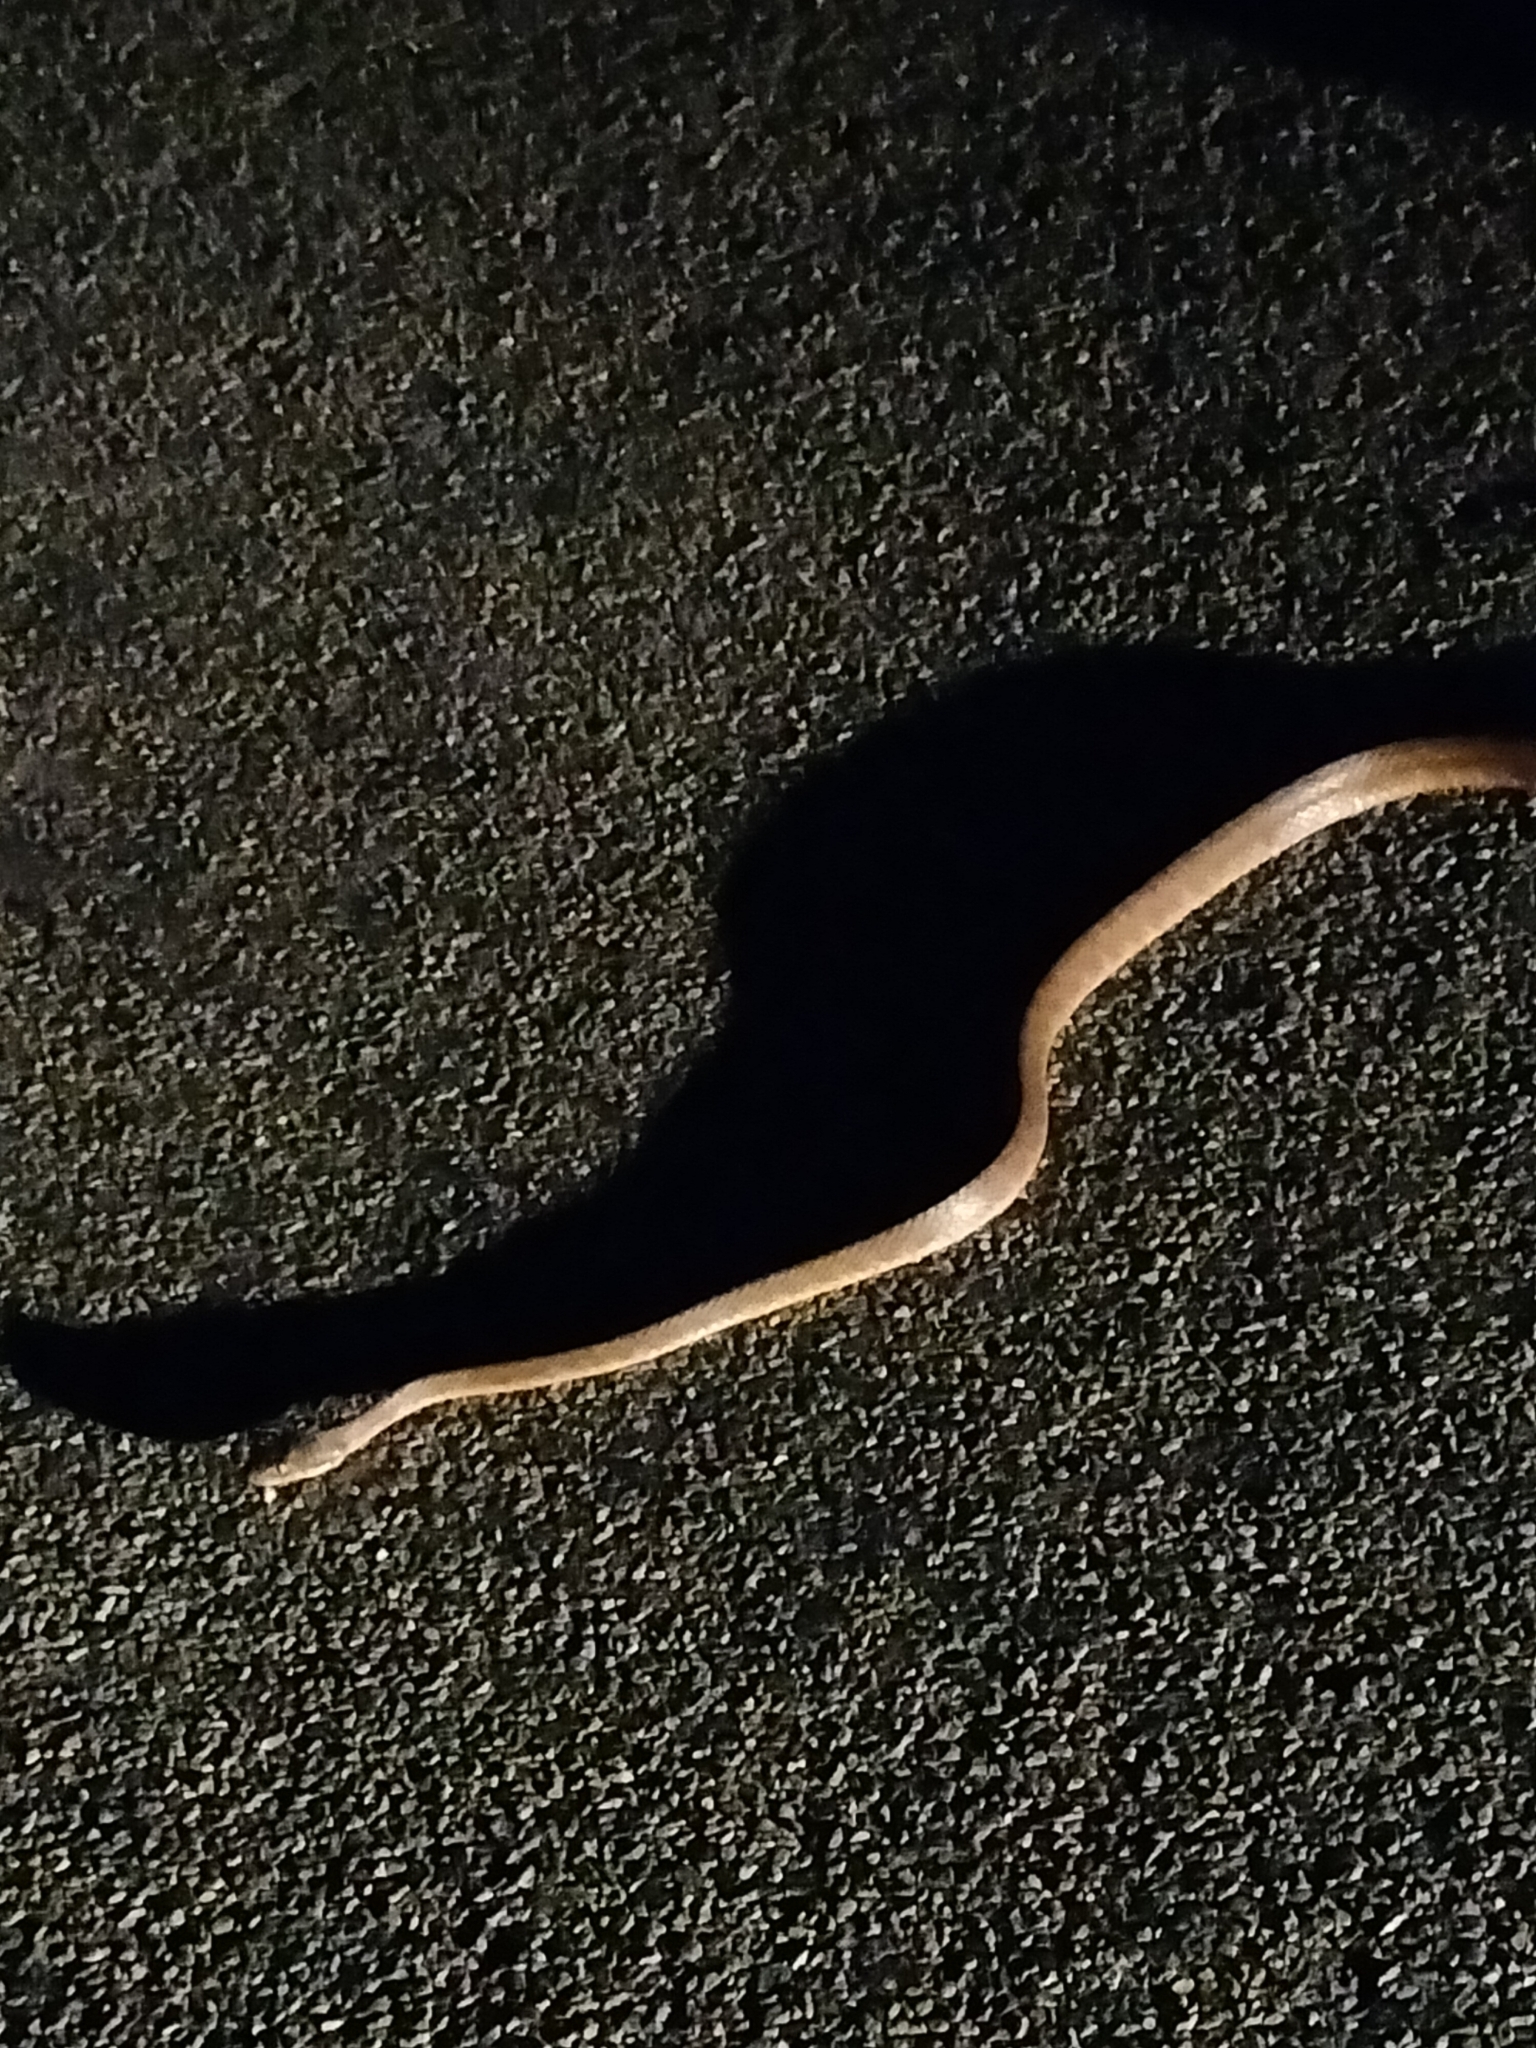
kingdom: Animalia
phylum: Chordata
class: Squamata
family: Colubridae
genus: Boiga
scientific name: Boiga irregularis
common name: Brown tree snake
